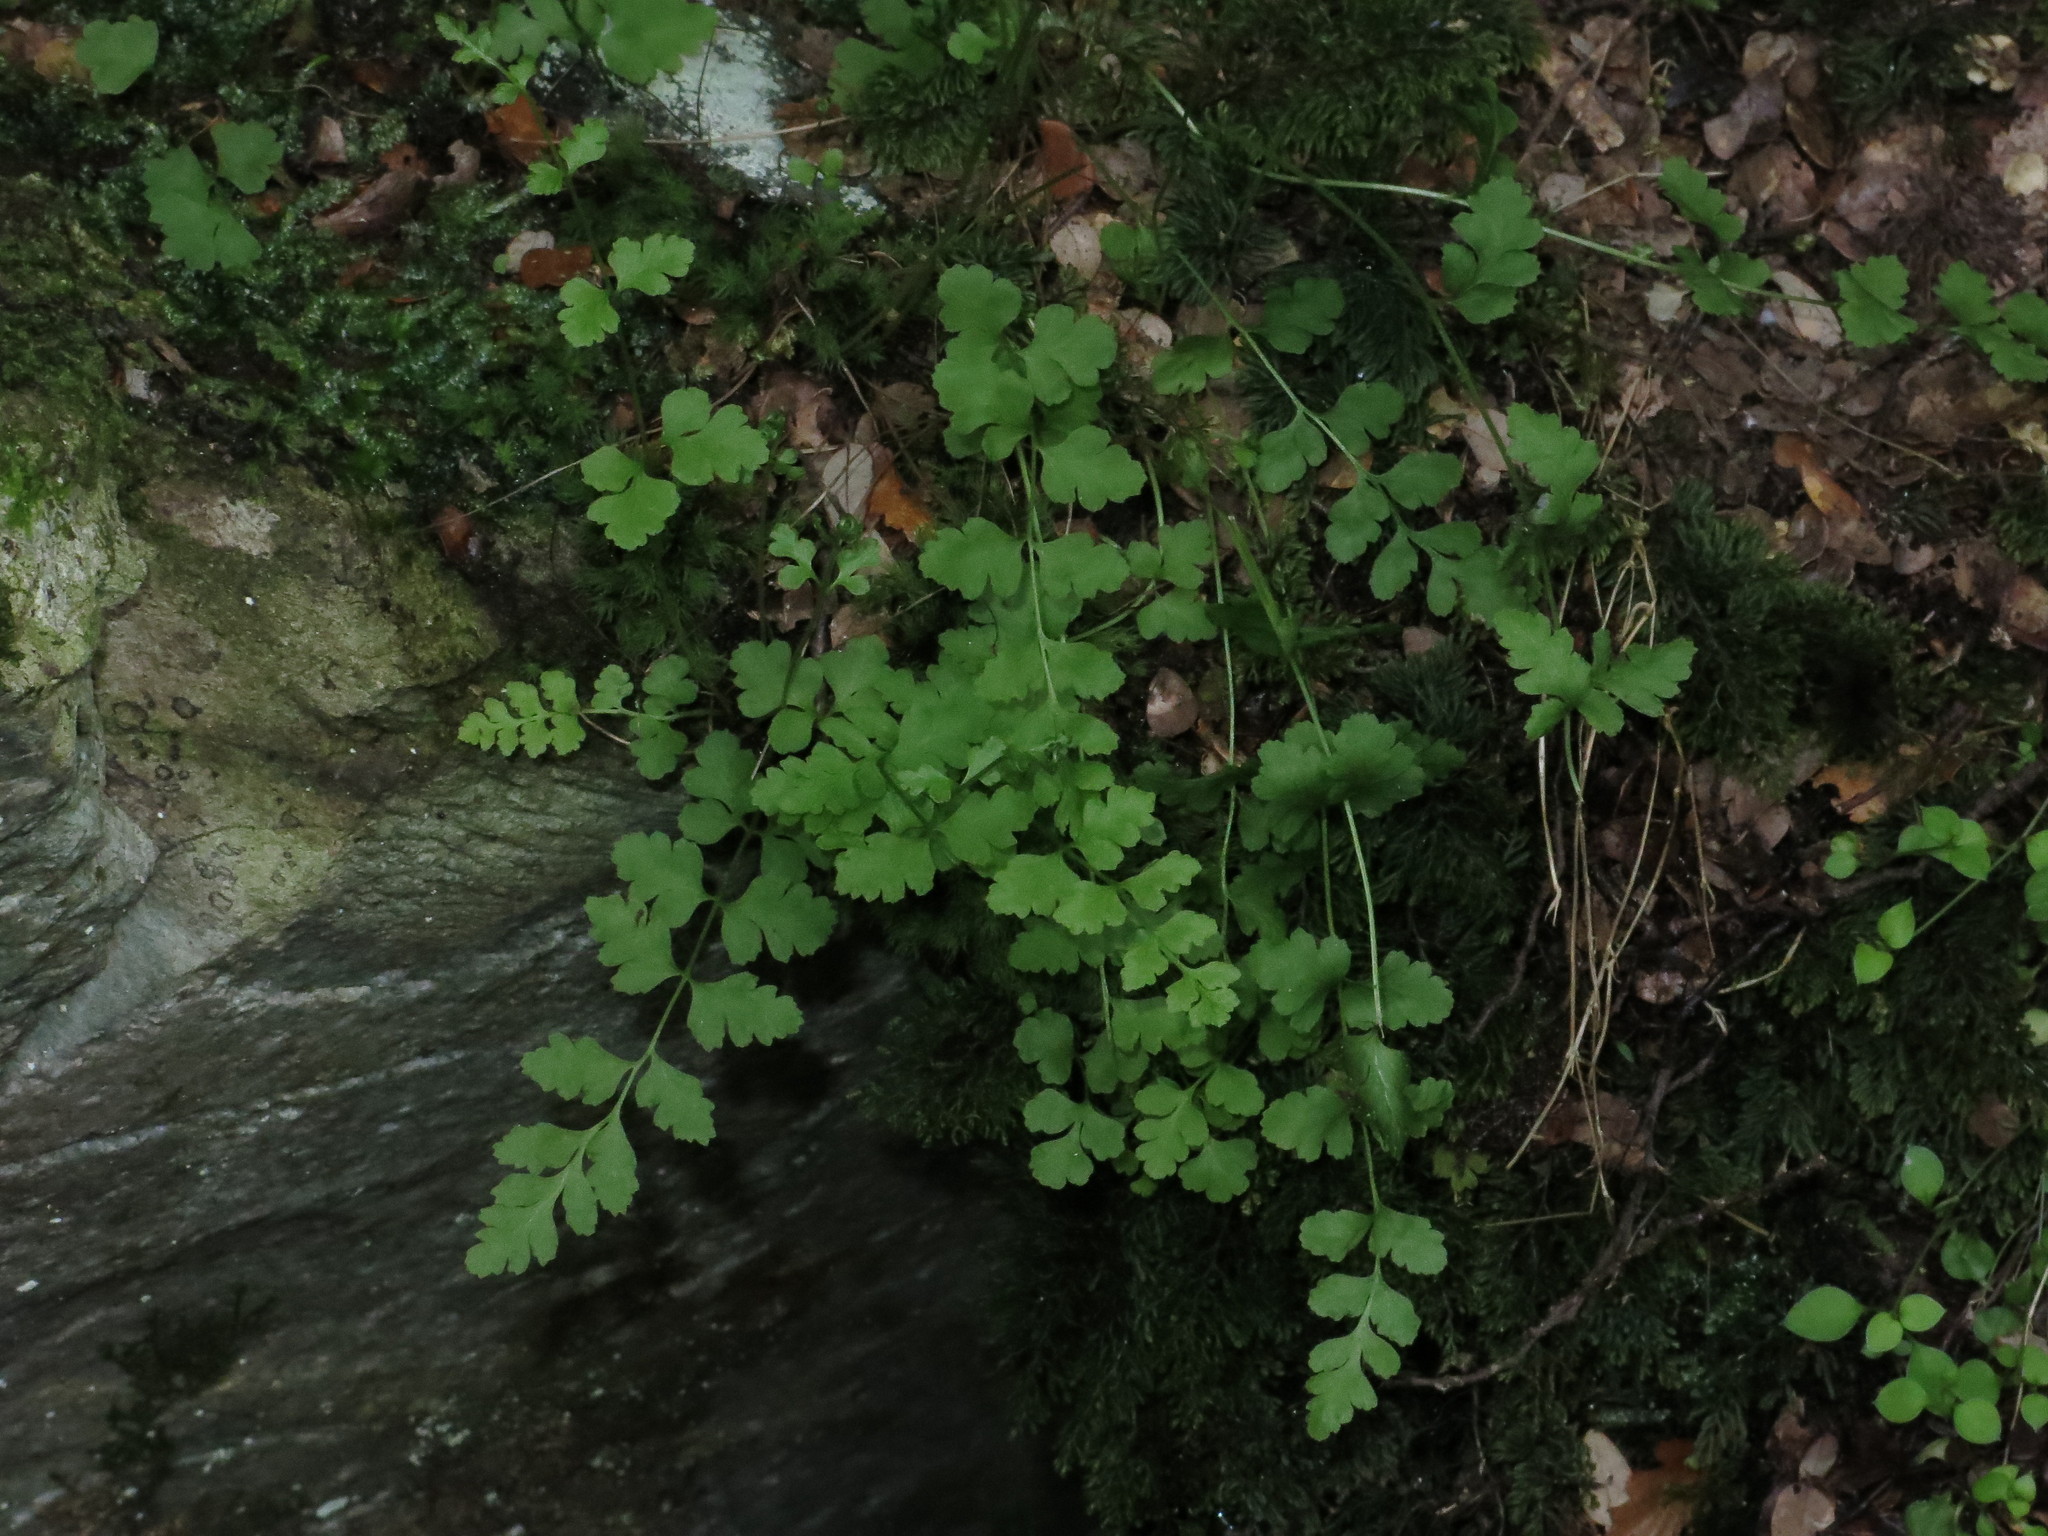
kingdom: Plantae
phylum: Tracheophyta
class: Polypodiopsida
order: Polypodiales
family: Cystopteridaceae
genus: Cystopteris
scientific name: Cystopteris tasmanica
